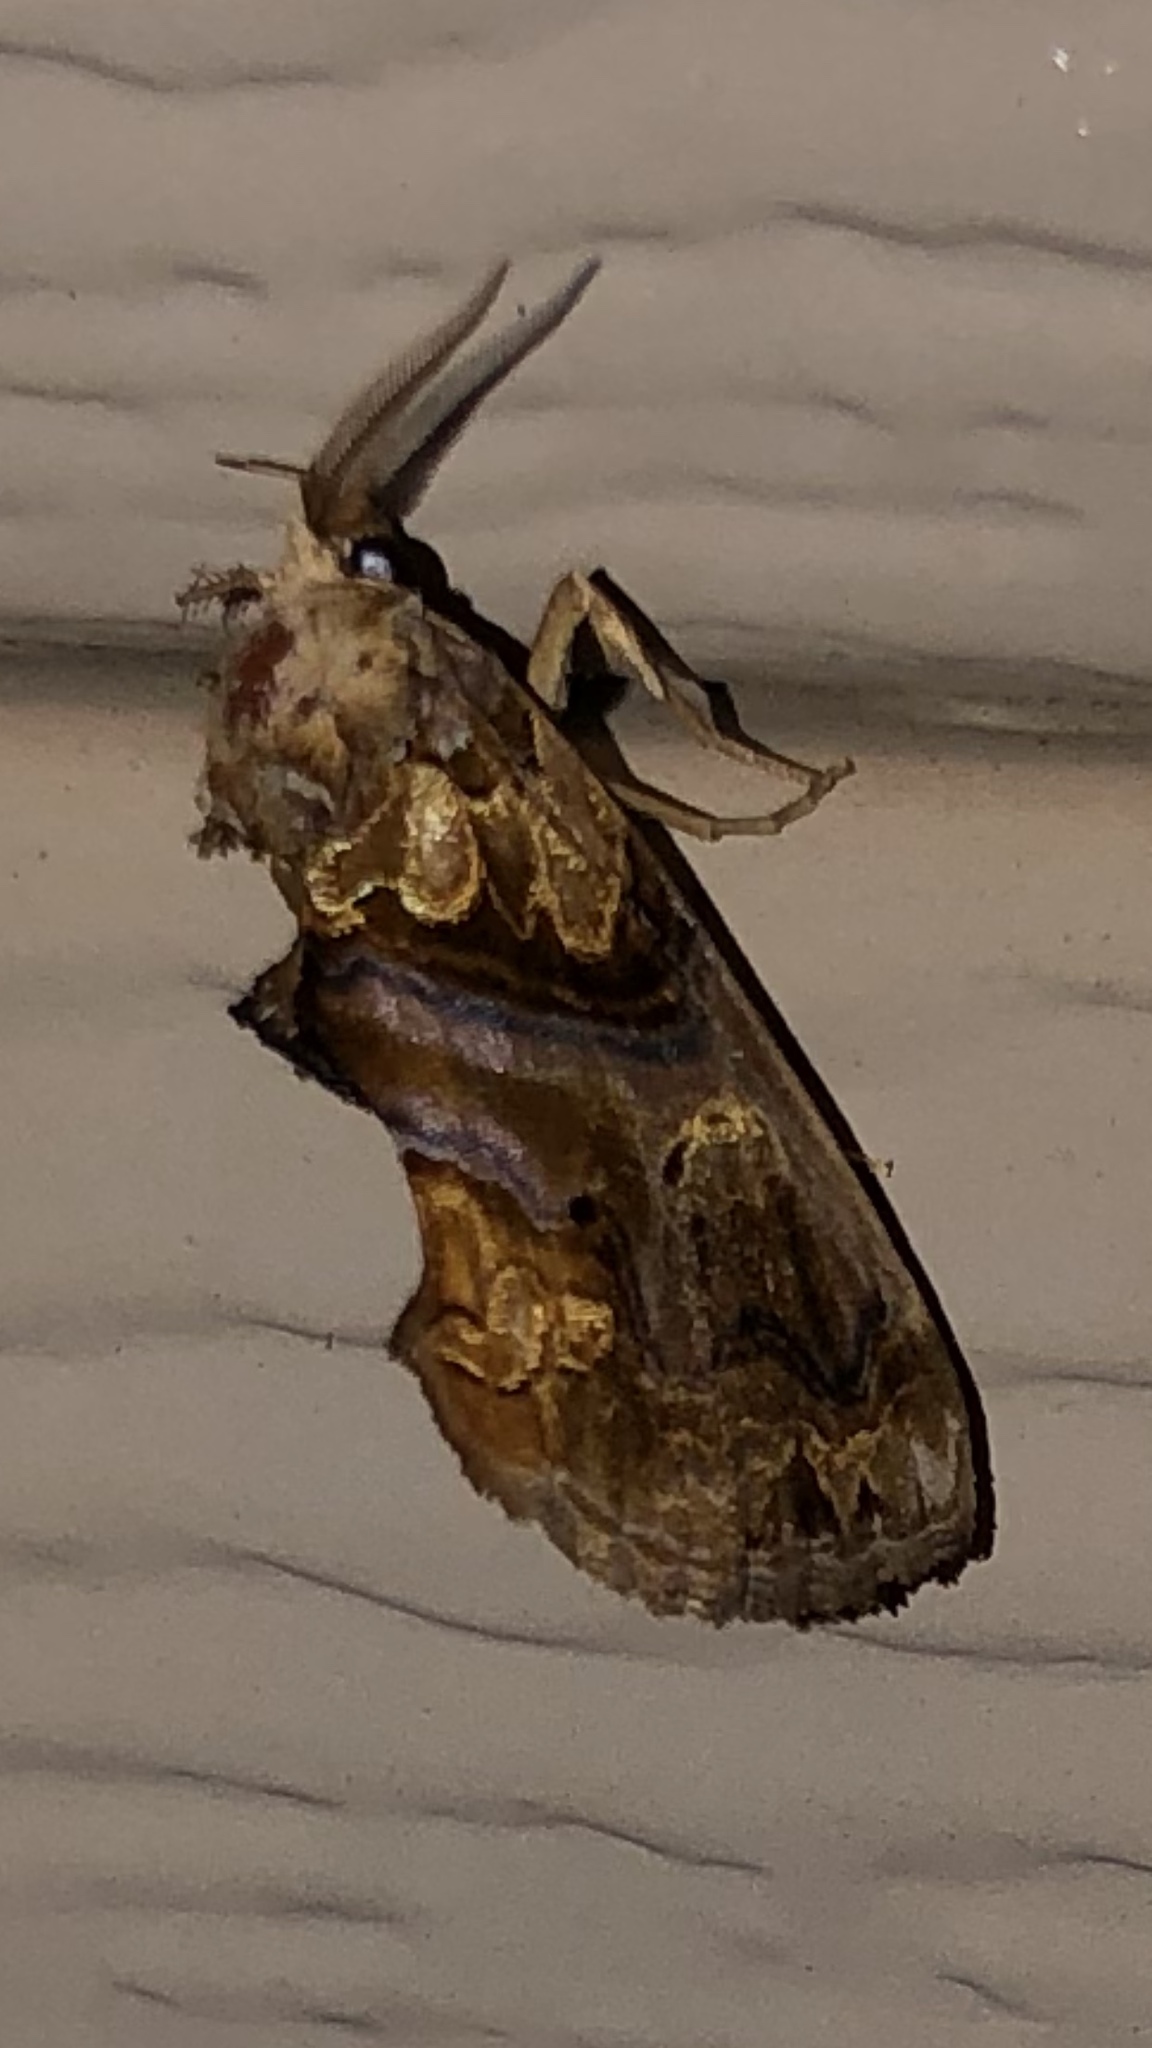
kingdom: Animalia
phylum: Arthropoda
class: Insecta
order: Lepidoptera
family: Erebidae
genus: Plusiodonta
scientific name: Plusiodonta compressipalpis
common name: Moonseed moth
